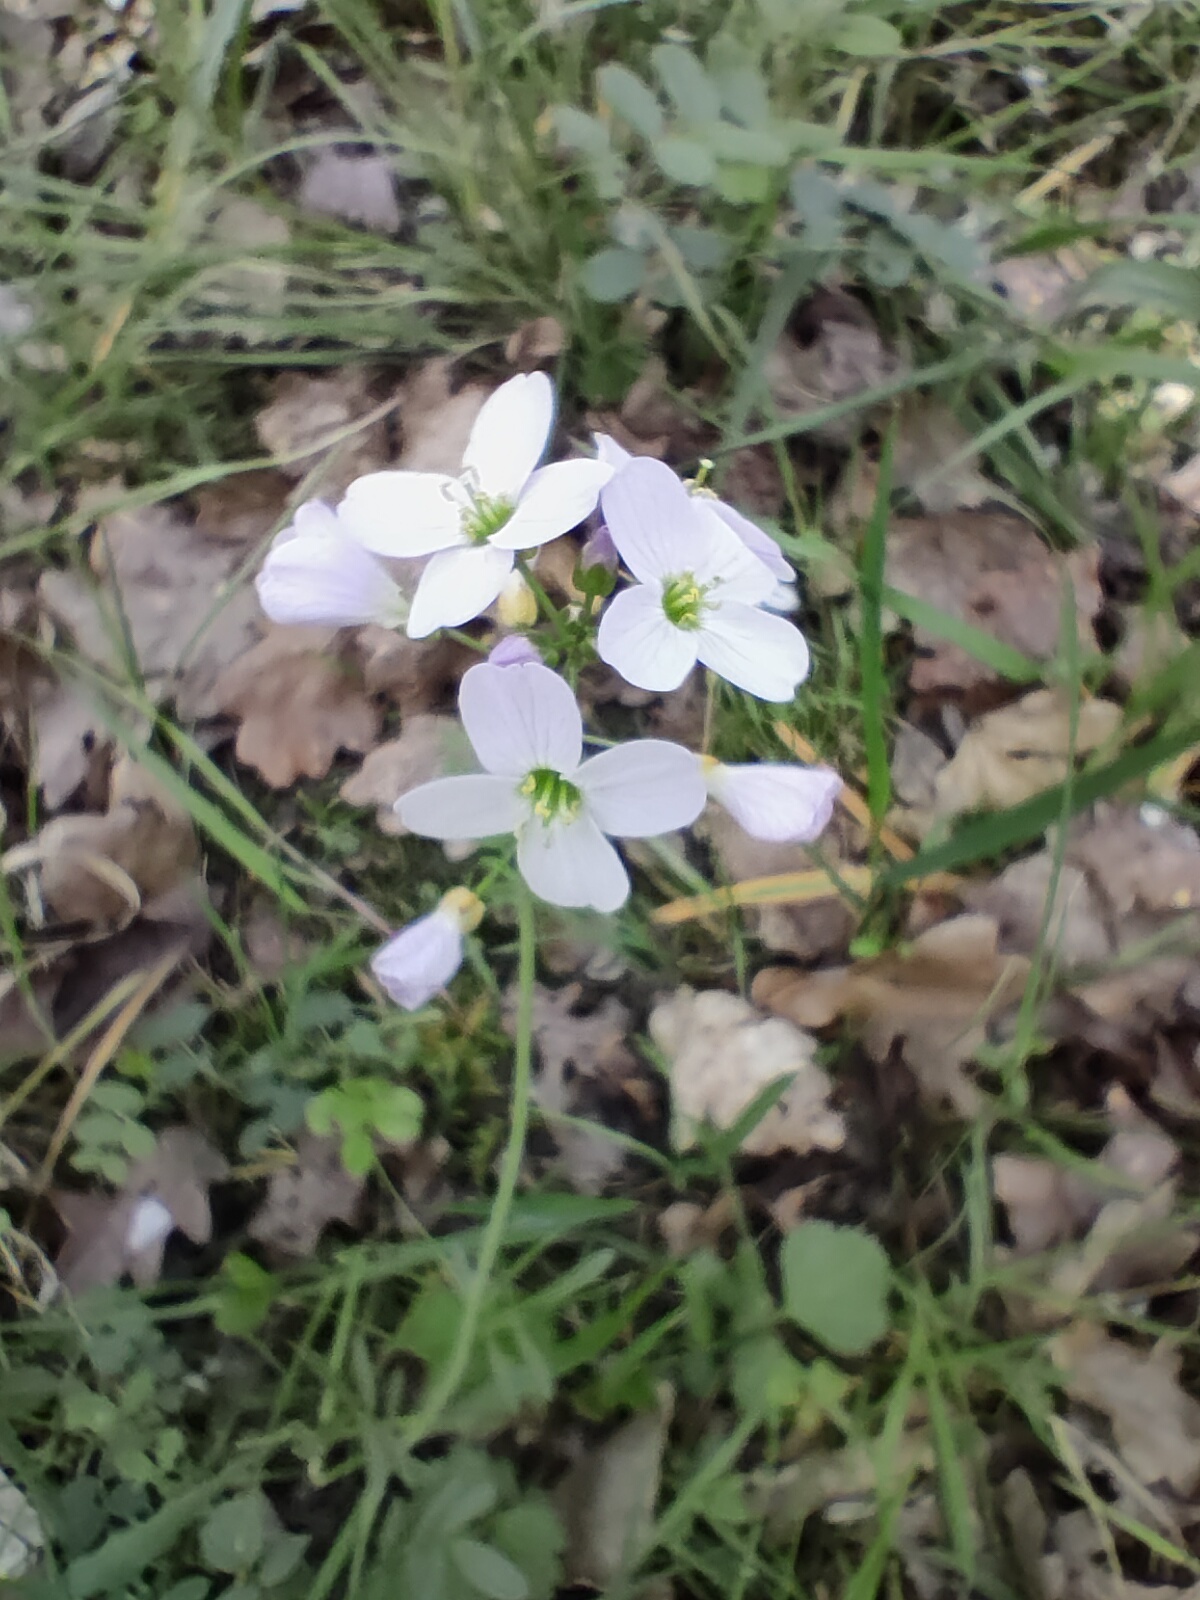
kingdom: Plantae
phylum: Tracheophyta
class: Magnoliopsida
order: Brassicales
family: Brassicaceae
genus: Cardamine
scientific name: Cardamine pratensis
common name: Cuckoo flower
